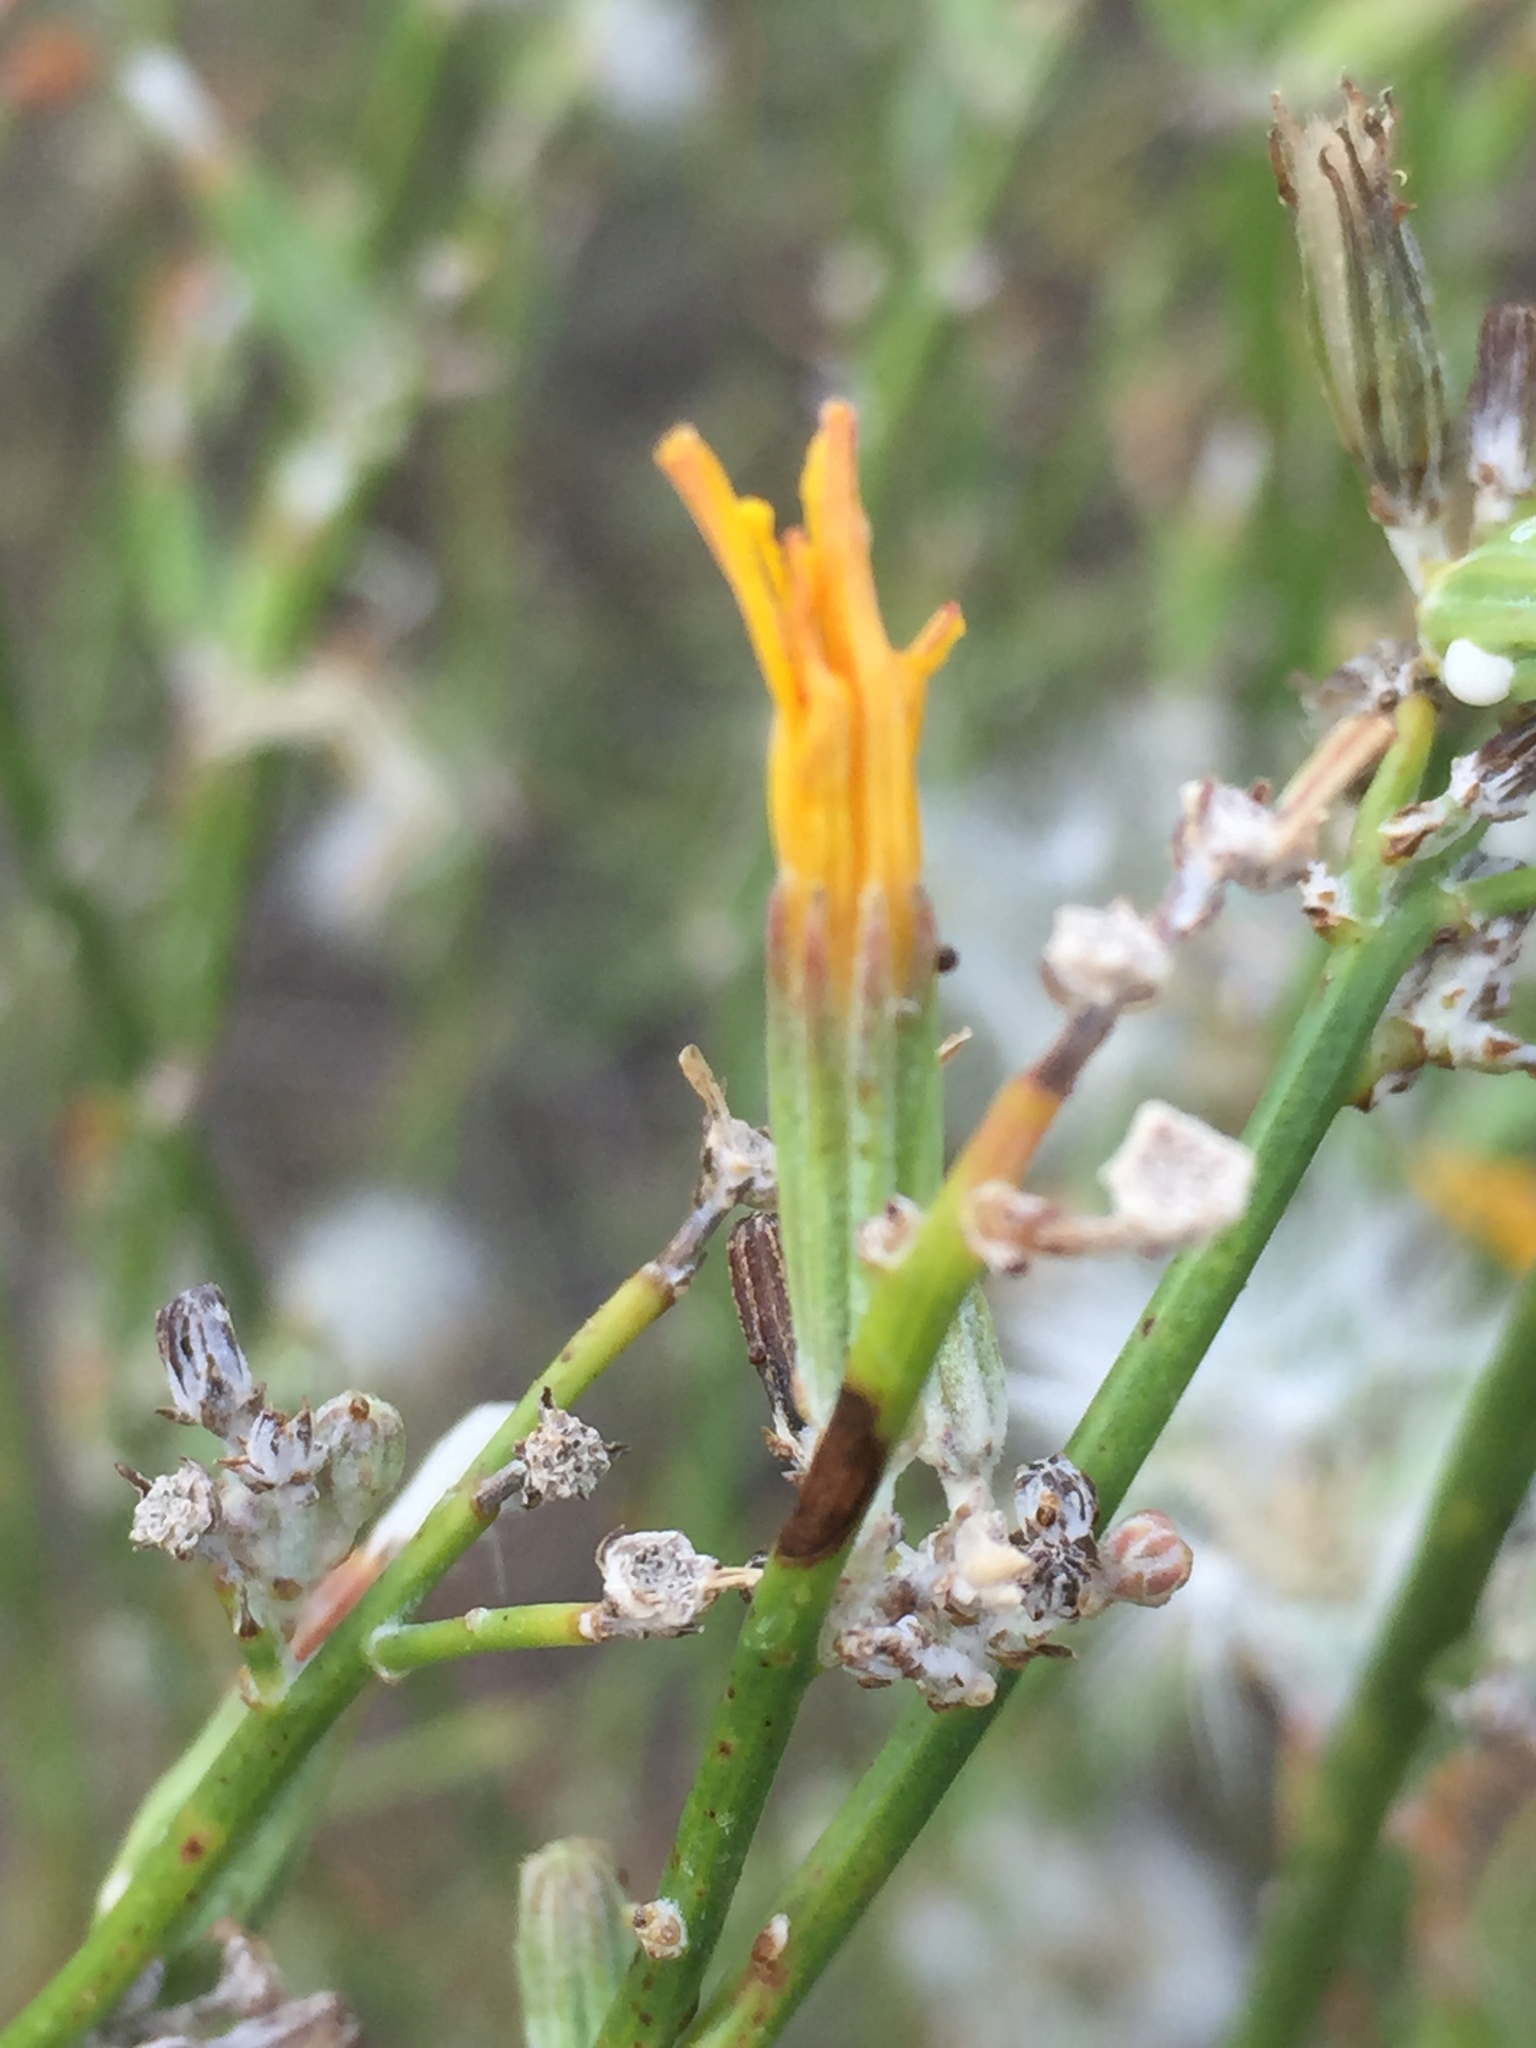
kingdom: Plantae
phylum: Tracheophyta
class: Magnoliopsida
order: Asterales
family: Asteraceae
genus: Chondrilla
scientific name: Chondrilla juncea
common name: Skeleton weed
